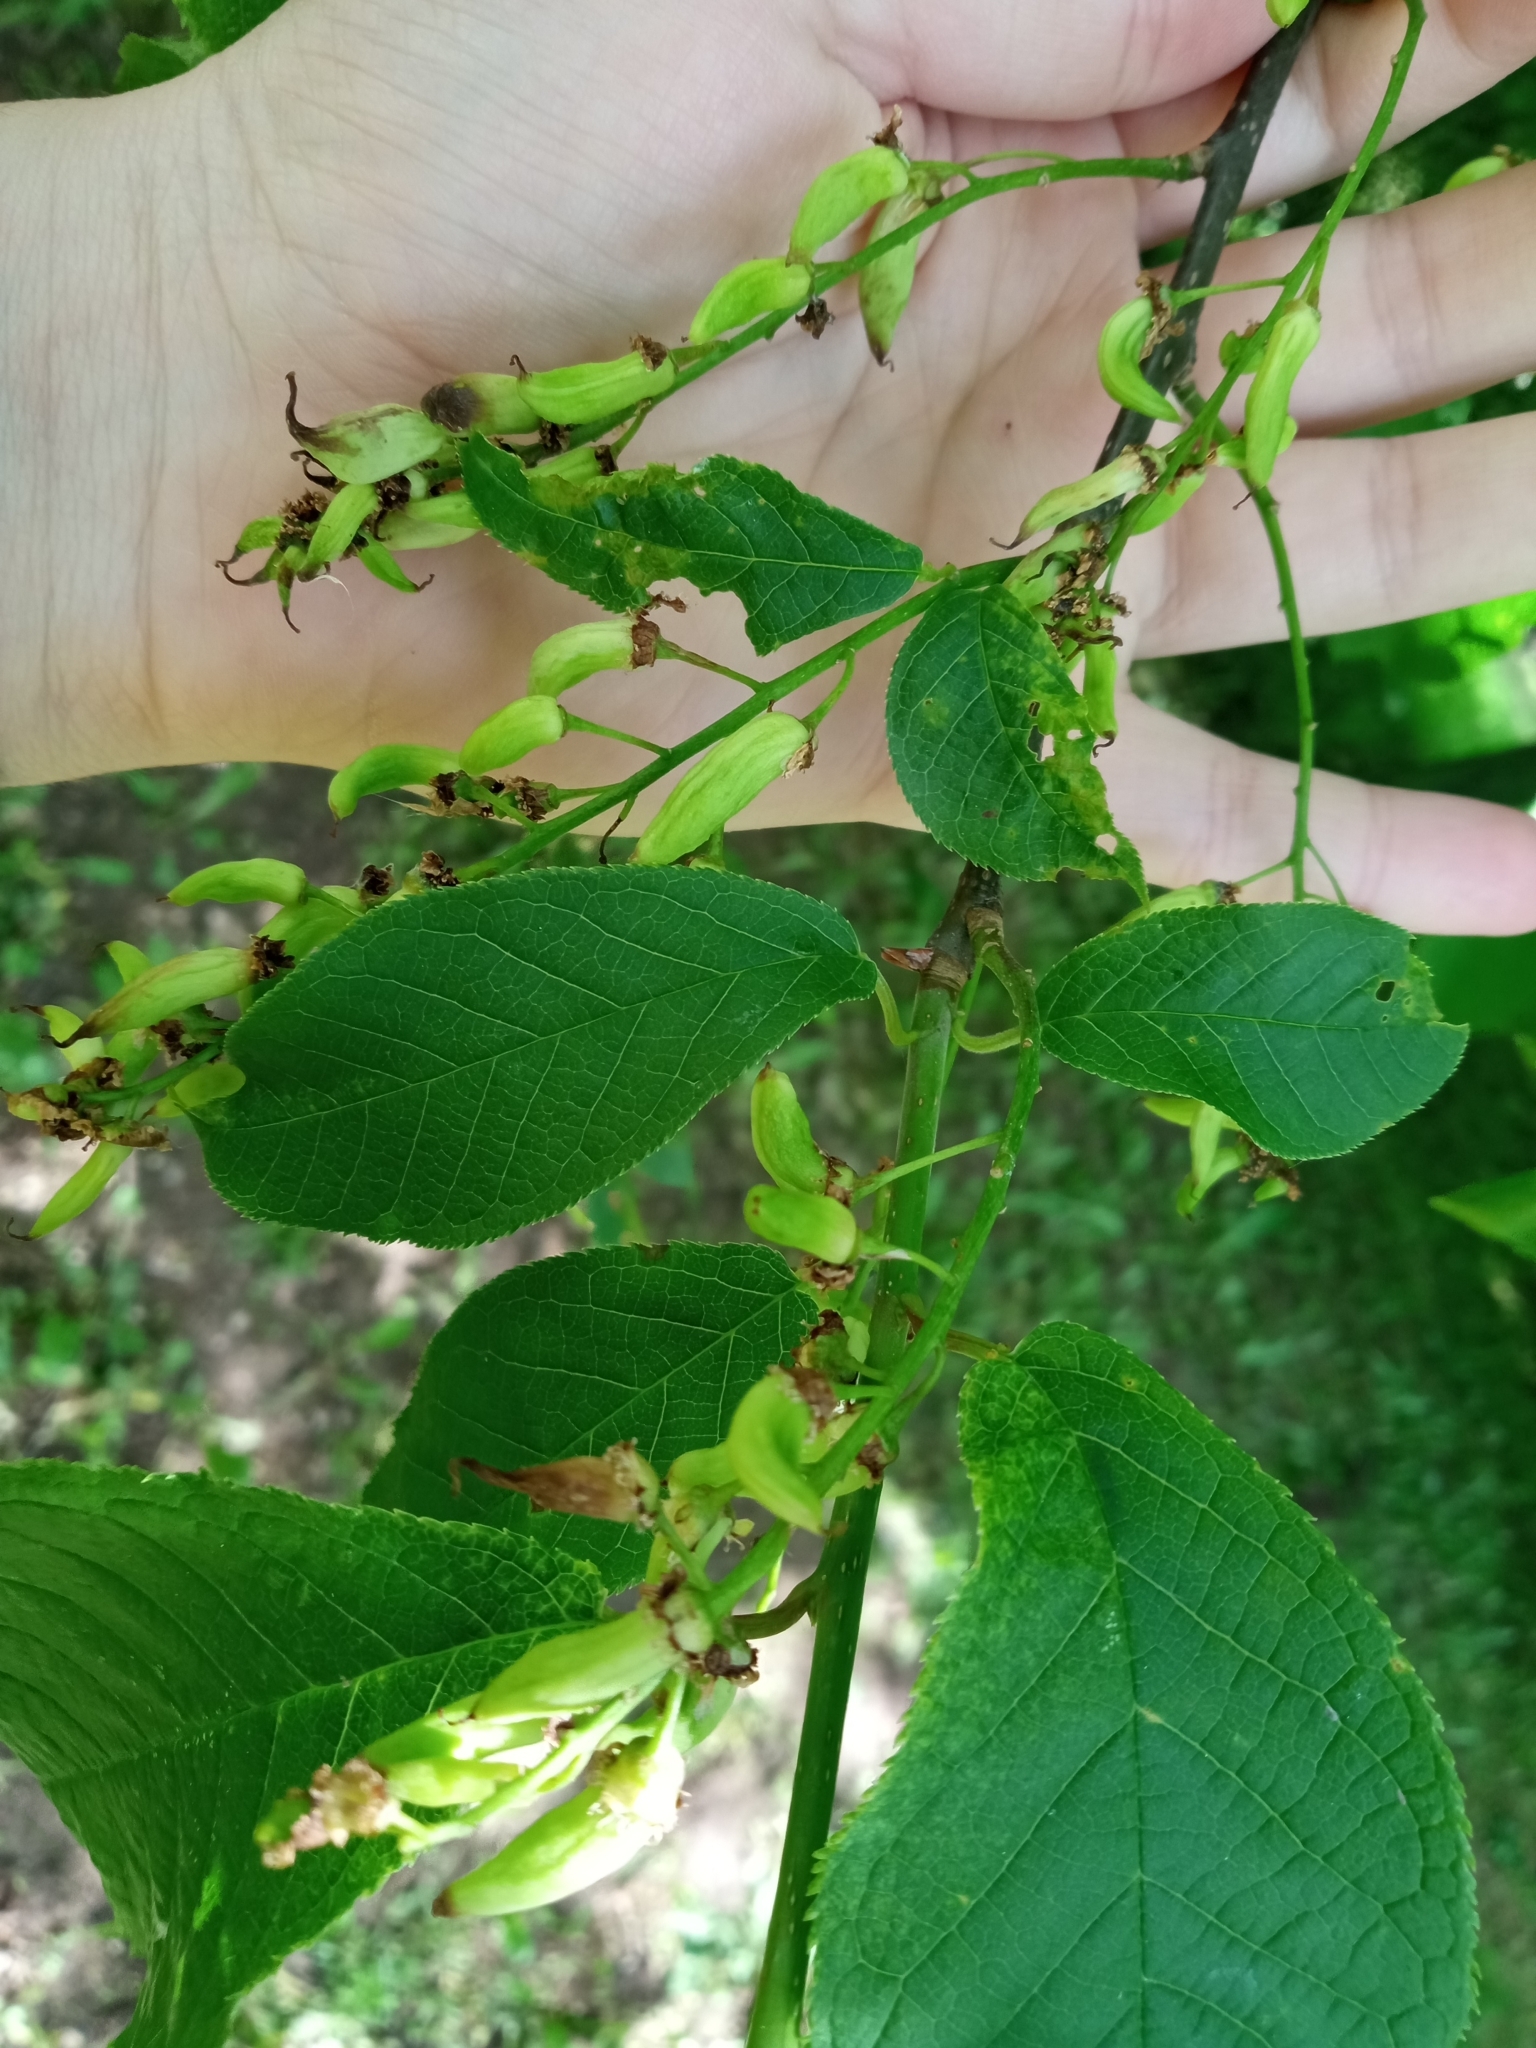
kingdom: Fungi
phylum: Ascomycota
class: Taphrinomycetes
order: Taphrinales
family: Taphrinaceae
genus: Taphrina
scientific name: Taphrina padi
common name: Bird cherry pocket
